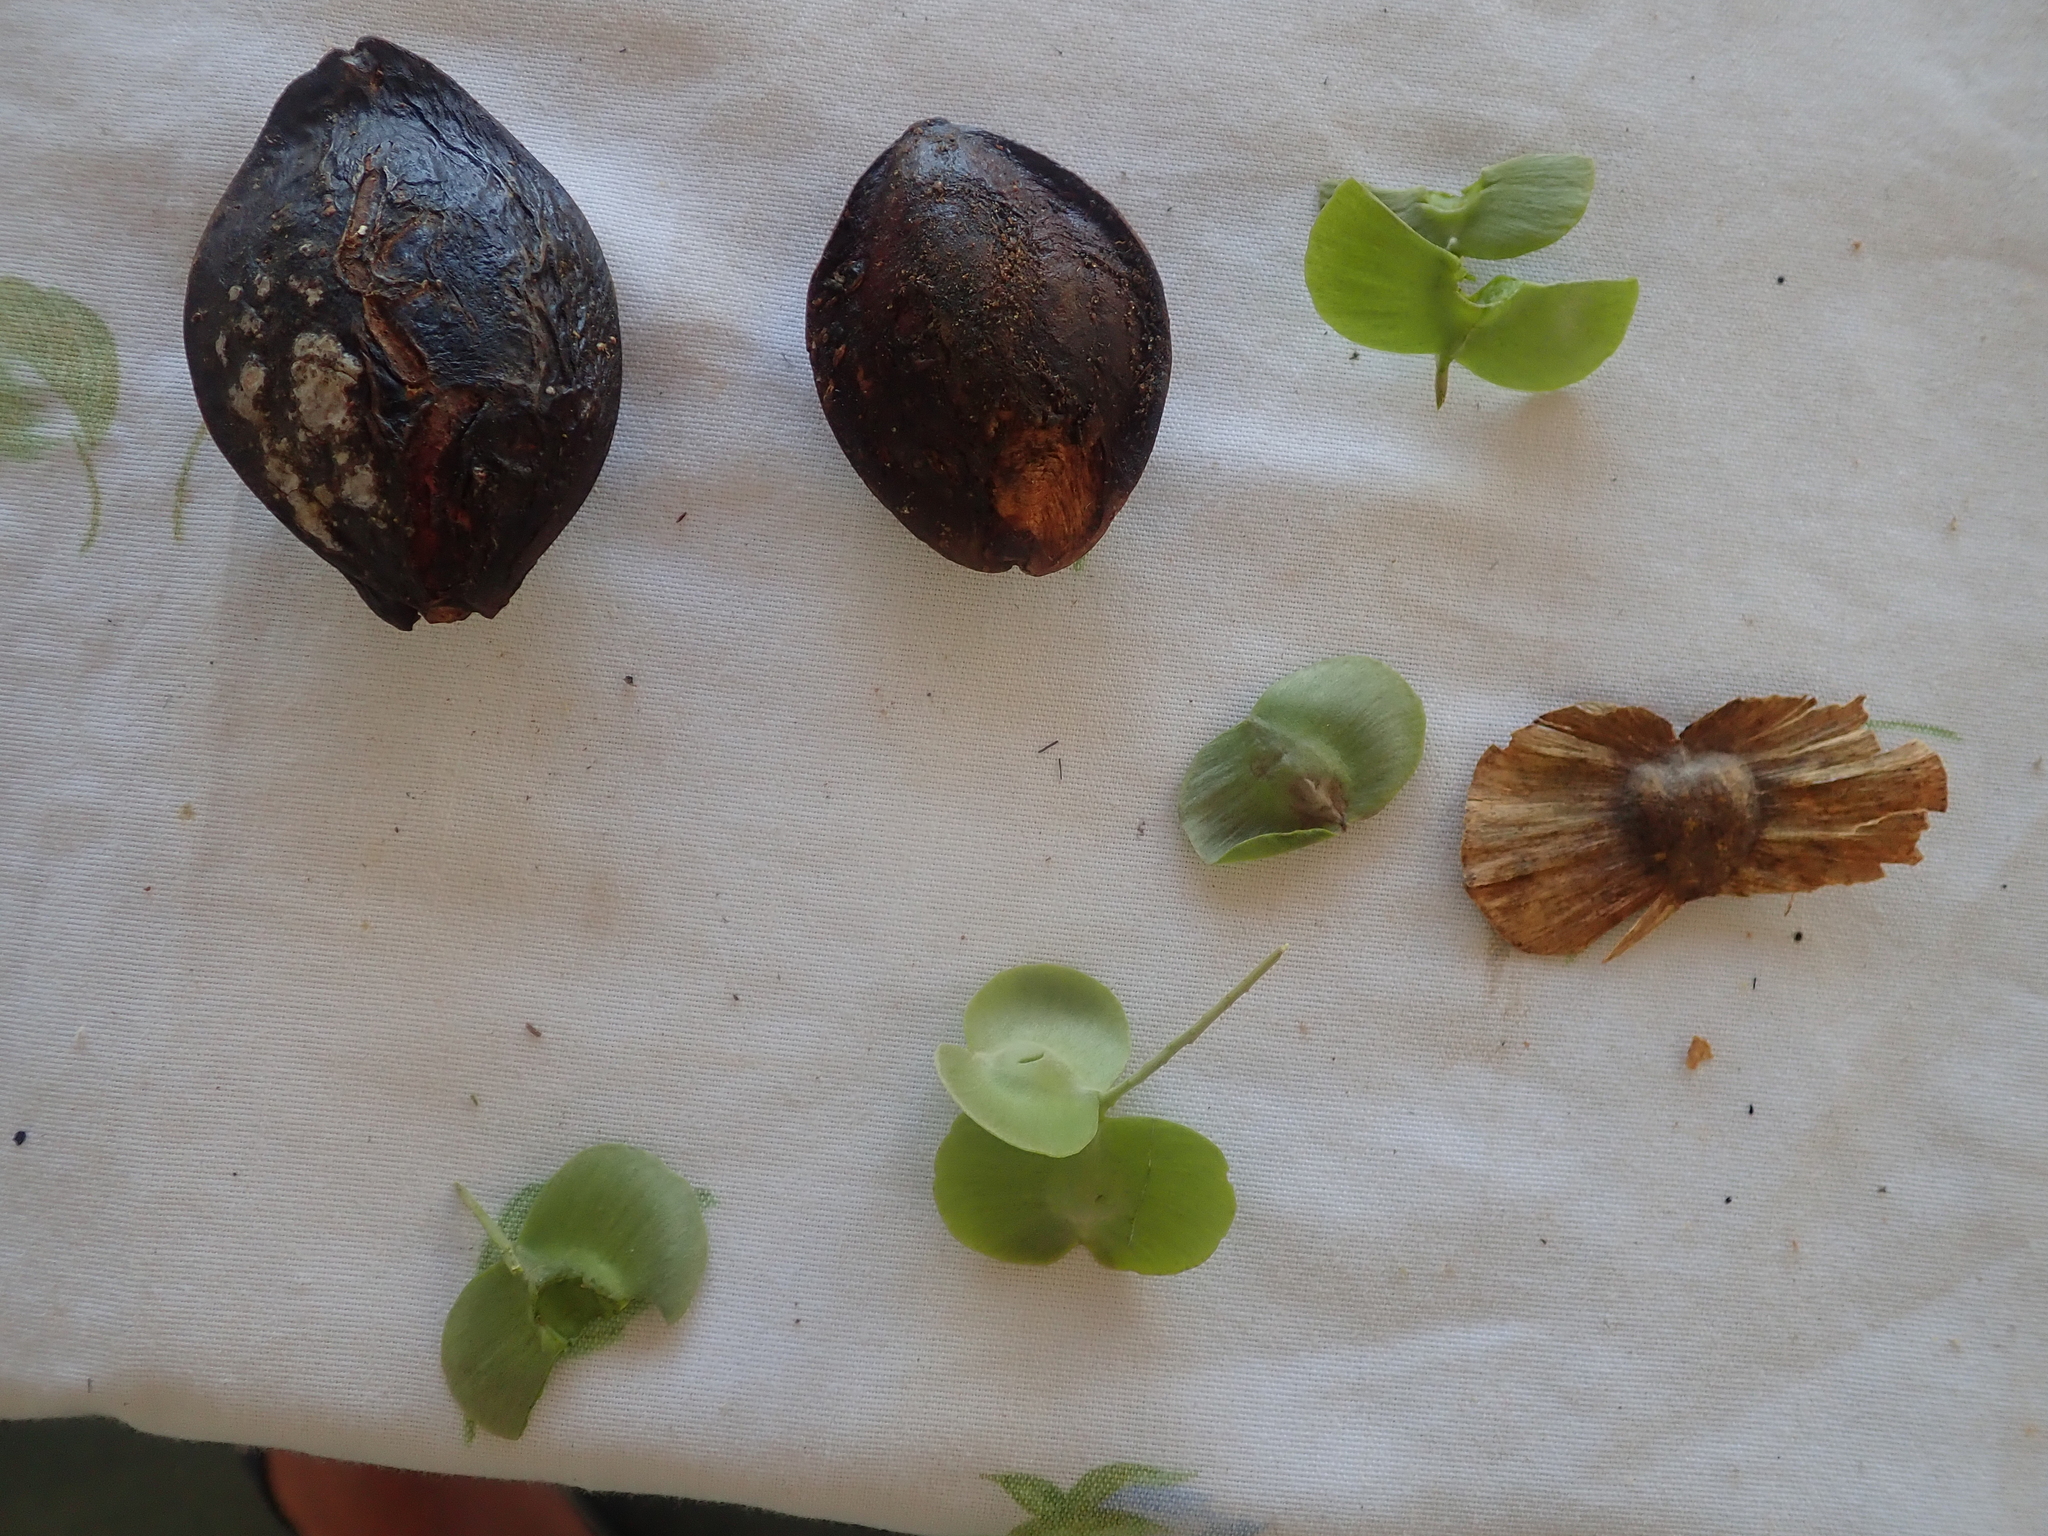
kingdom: Plantae
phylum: Tracheophyta
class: Magnoliopsida
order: Myrtales
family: Combretaceae
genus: Terminalia
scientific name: Terminalia catappa
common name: Tropical almond
